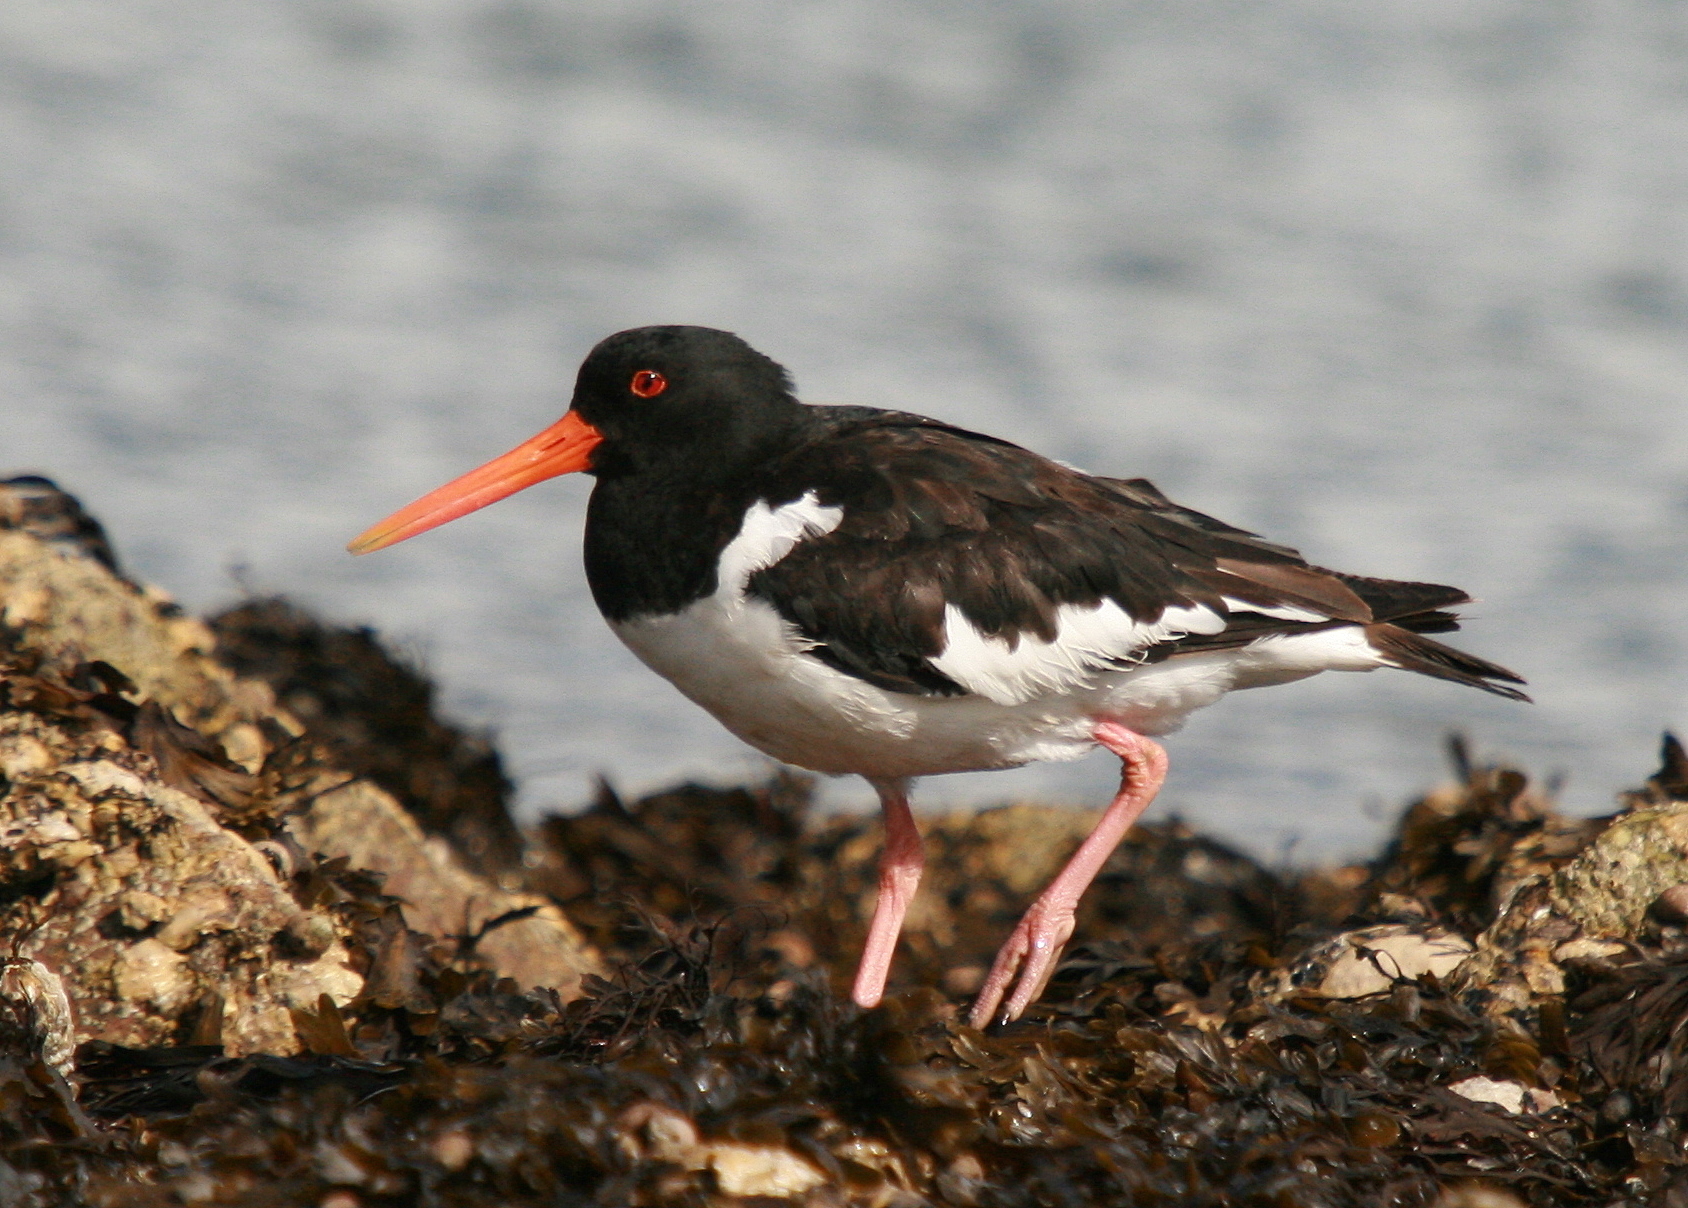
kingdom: Animalia
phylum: Chordata
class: Aves
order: Charadriiformes
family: Haematopodidae
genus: Haematopus
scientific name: Haematopus ostralegus
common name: Eurasian oystercatcher
